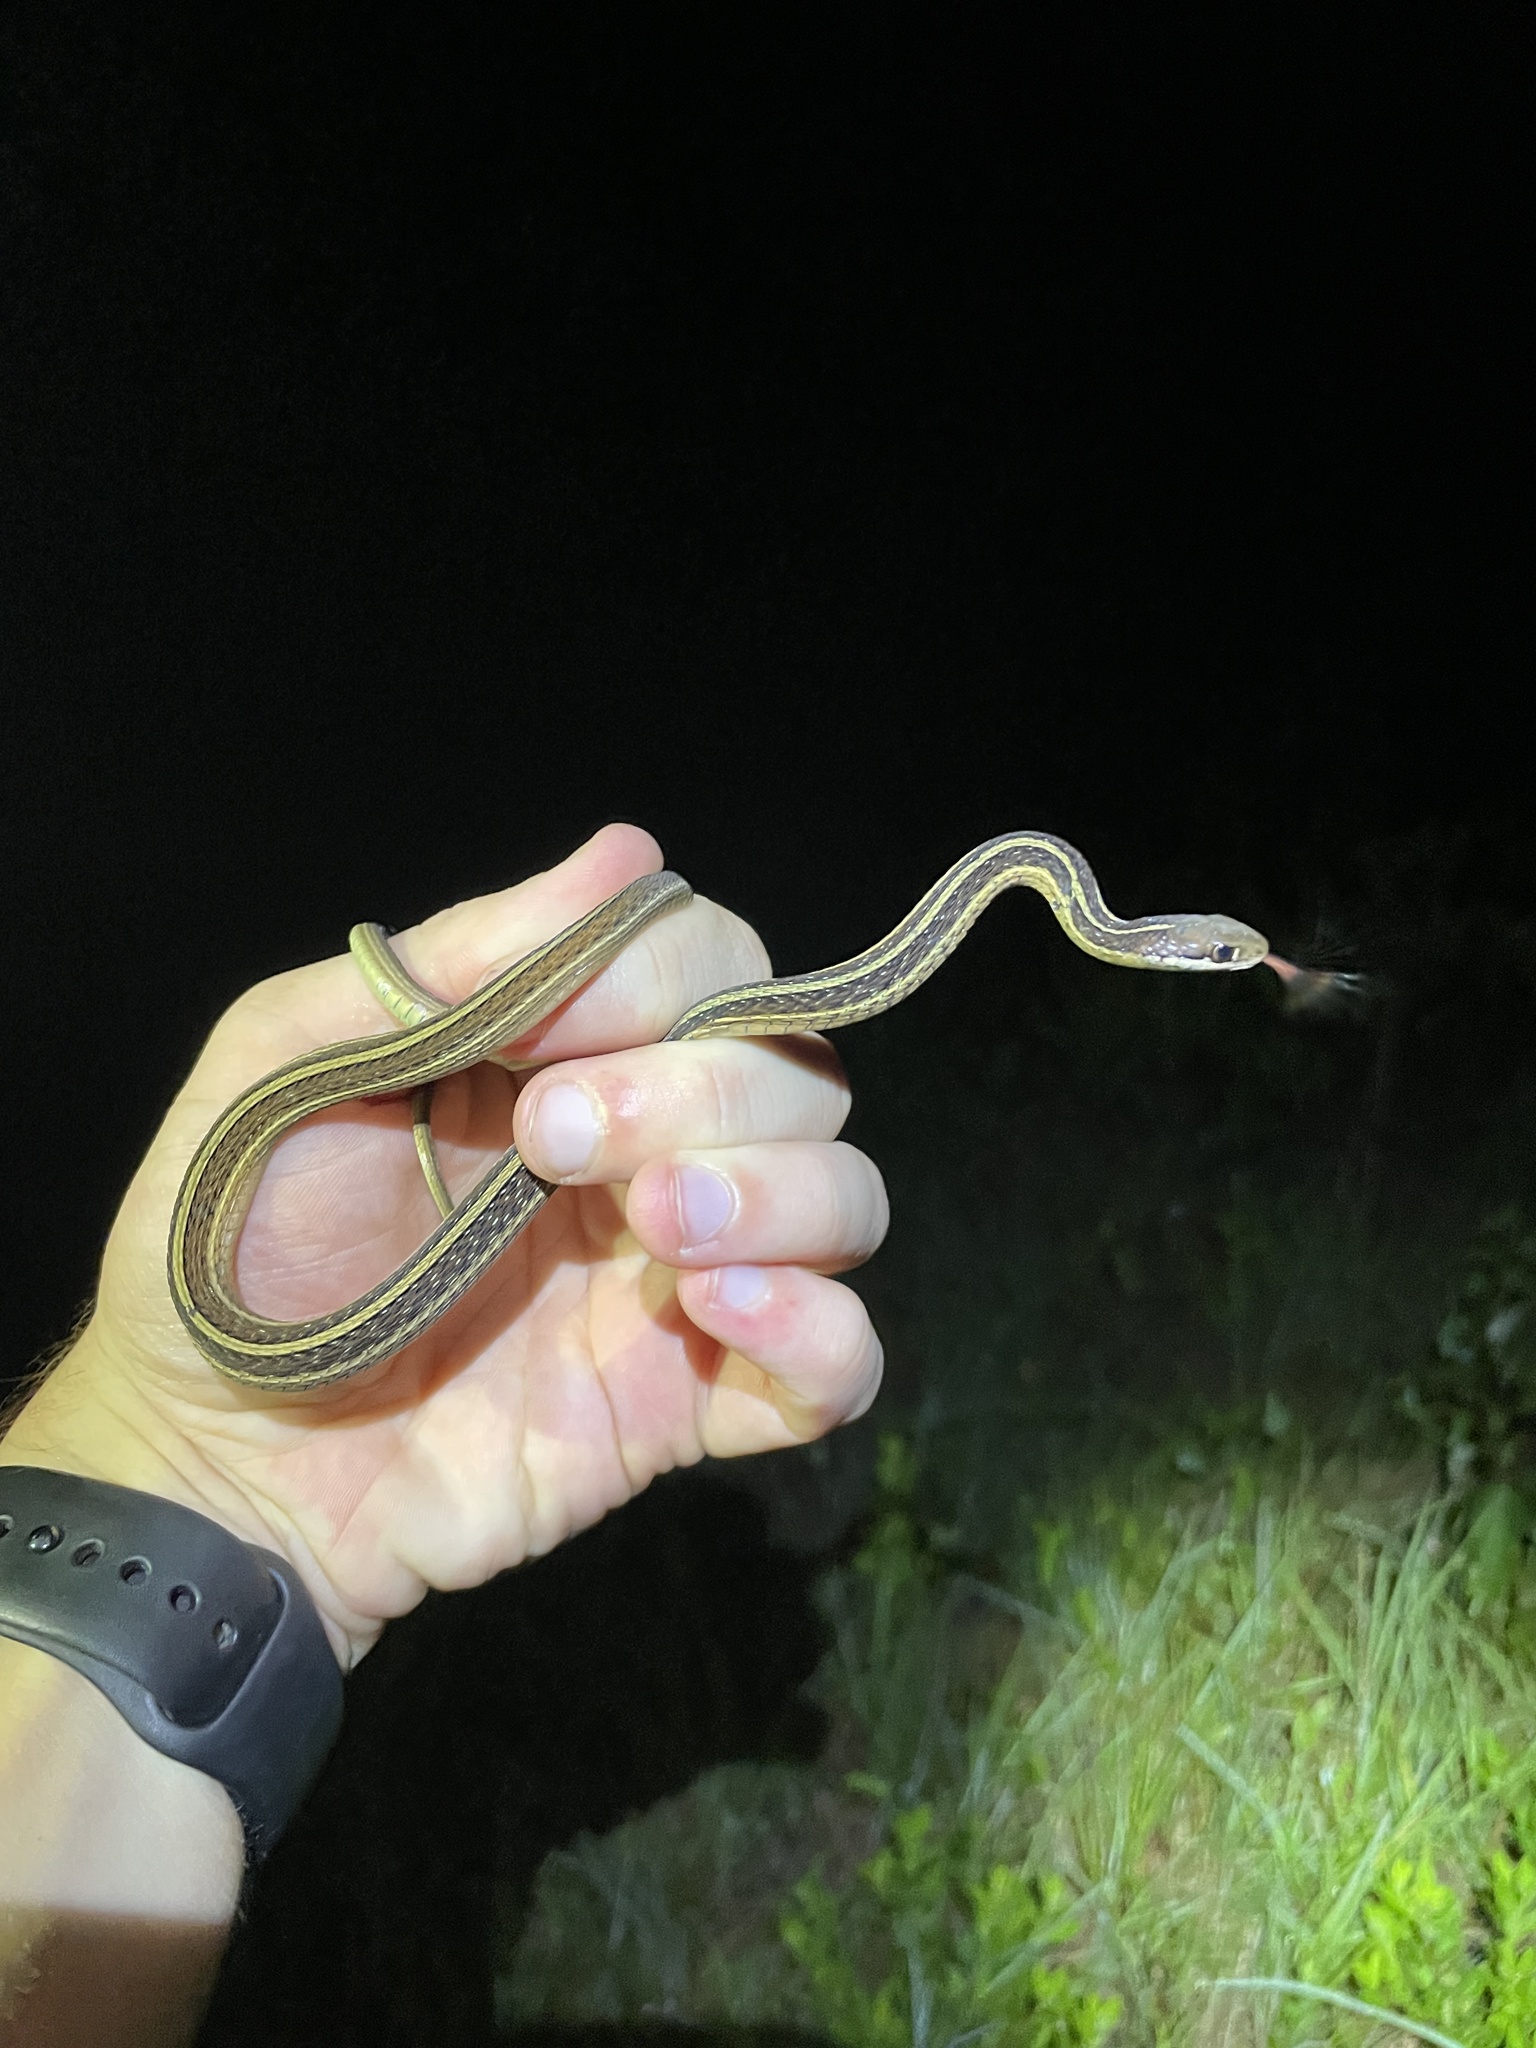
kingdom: Animalia
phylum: Chordata
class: Squamata
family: Colubridae
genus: Thamnophis
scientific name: Thamnophis saurita
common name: Eastern ribbonsnake
